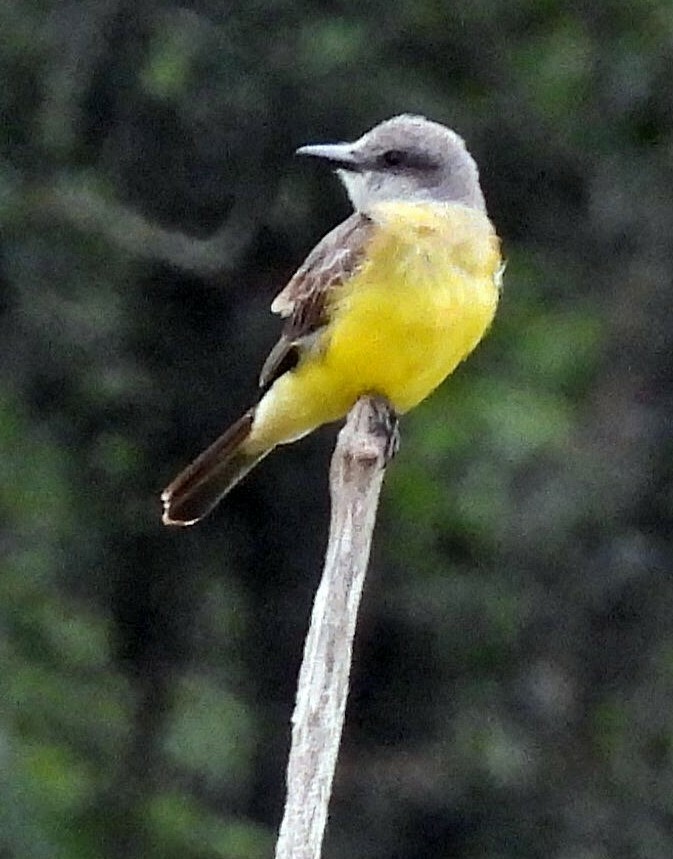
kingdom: Animalia
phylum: Chordata
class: Aves
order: Passeriformes
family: Tyrannidae
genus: Tyrannus
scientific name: Tyrannus melancholicus
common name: Tropical kingbird
